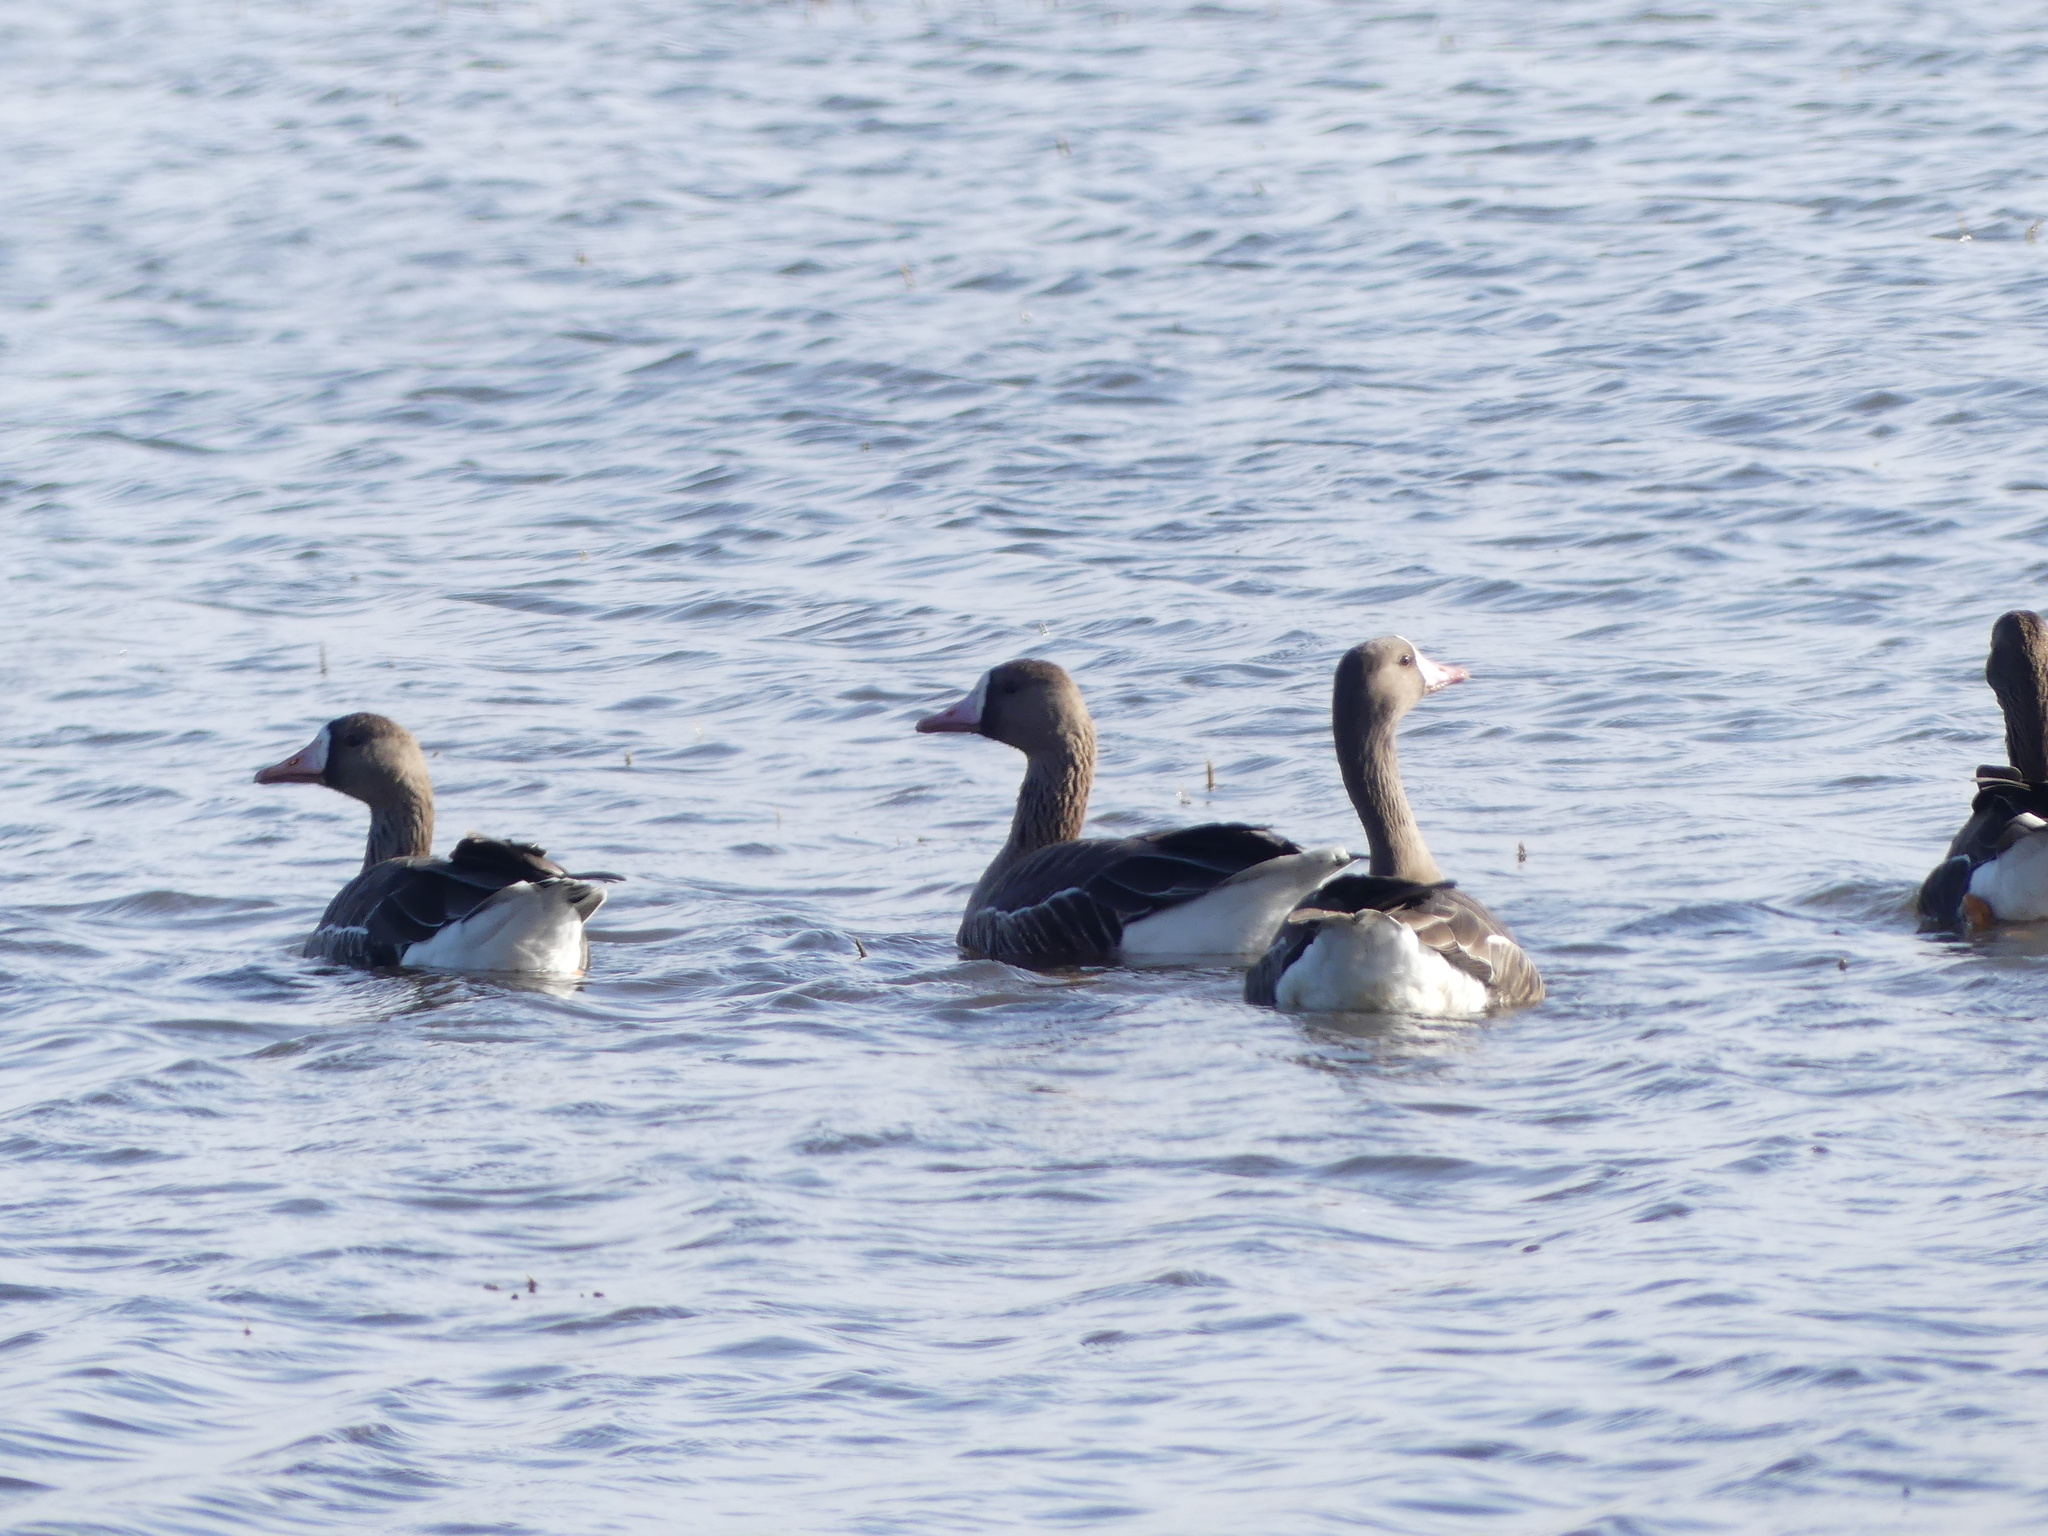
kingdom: Animalia
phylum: Chordata
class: Aves
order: Anseriformes
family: Anatidae
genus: Anser
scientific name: Anser albifrons
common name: Greater white-fronted goose
